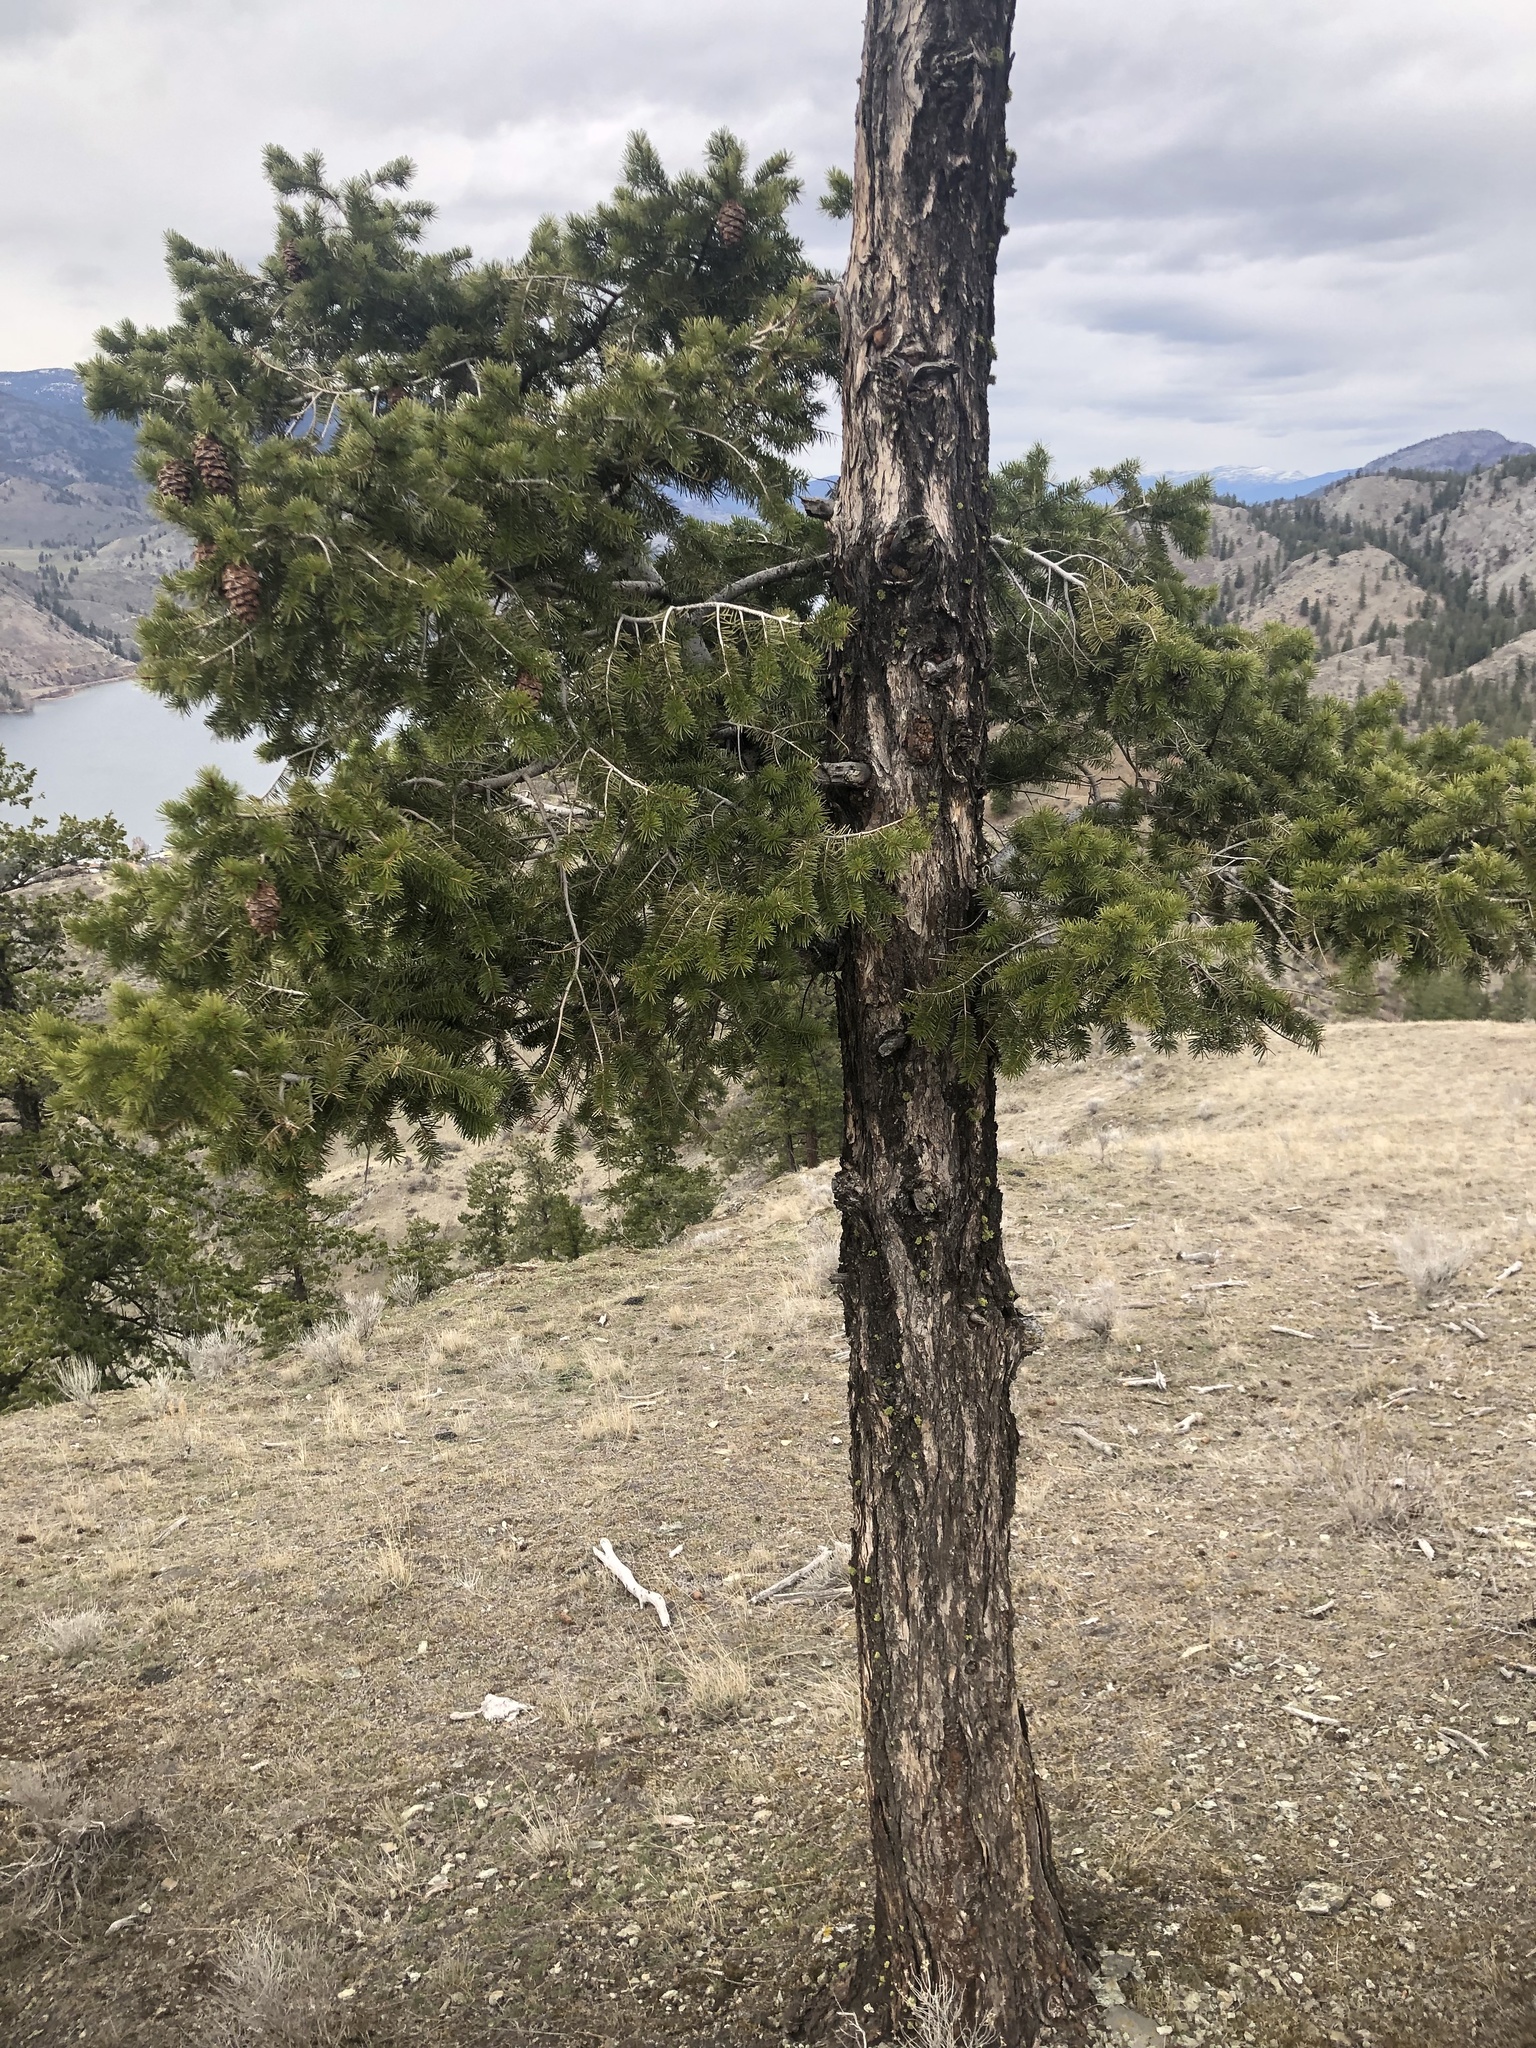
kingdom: Plantae
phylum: Tracheophyta
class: Pinopsida
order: Pinales
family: Pinaceae
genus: Pseudotsuga
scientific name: Pseudotsuga menziesii
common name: Douglas fir
